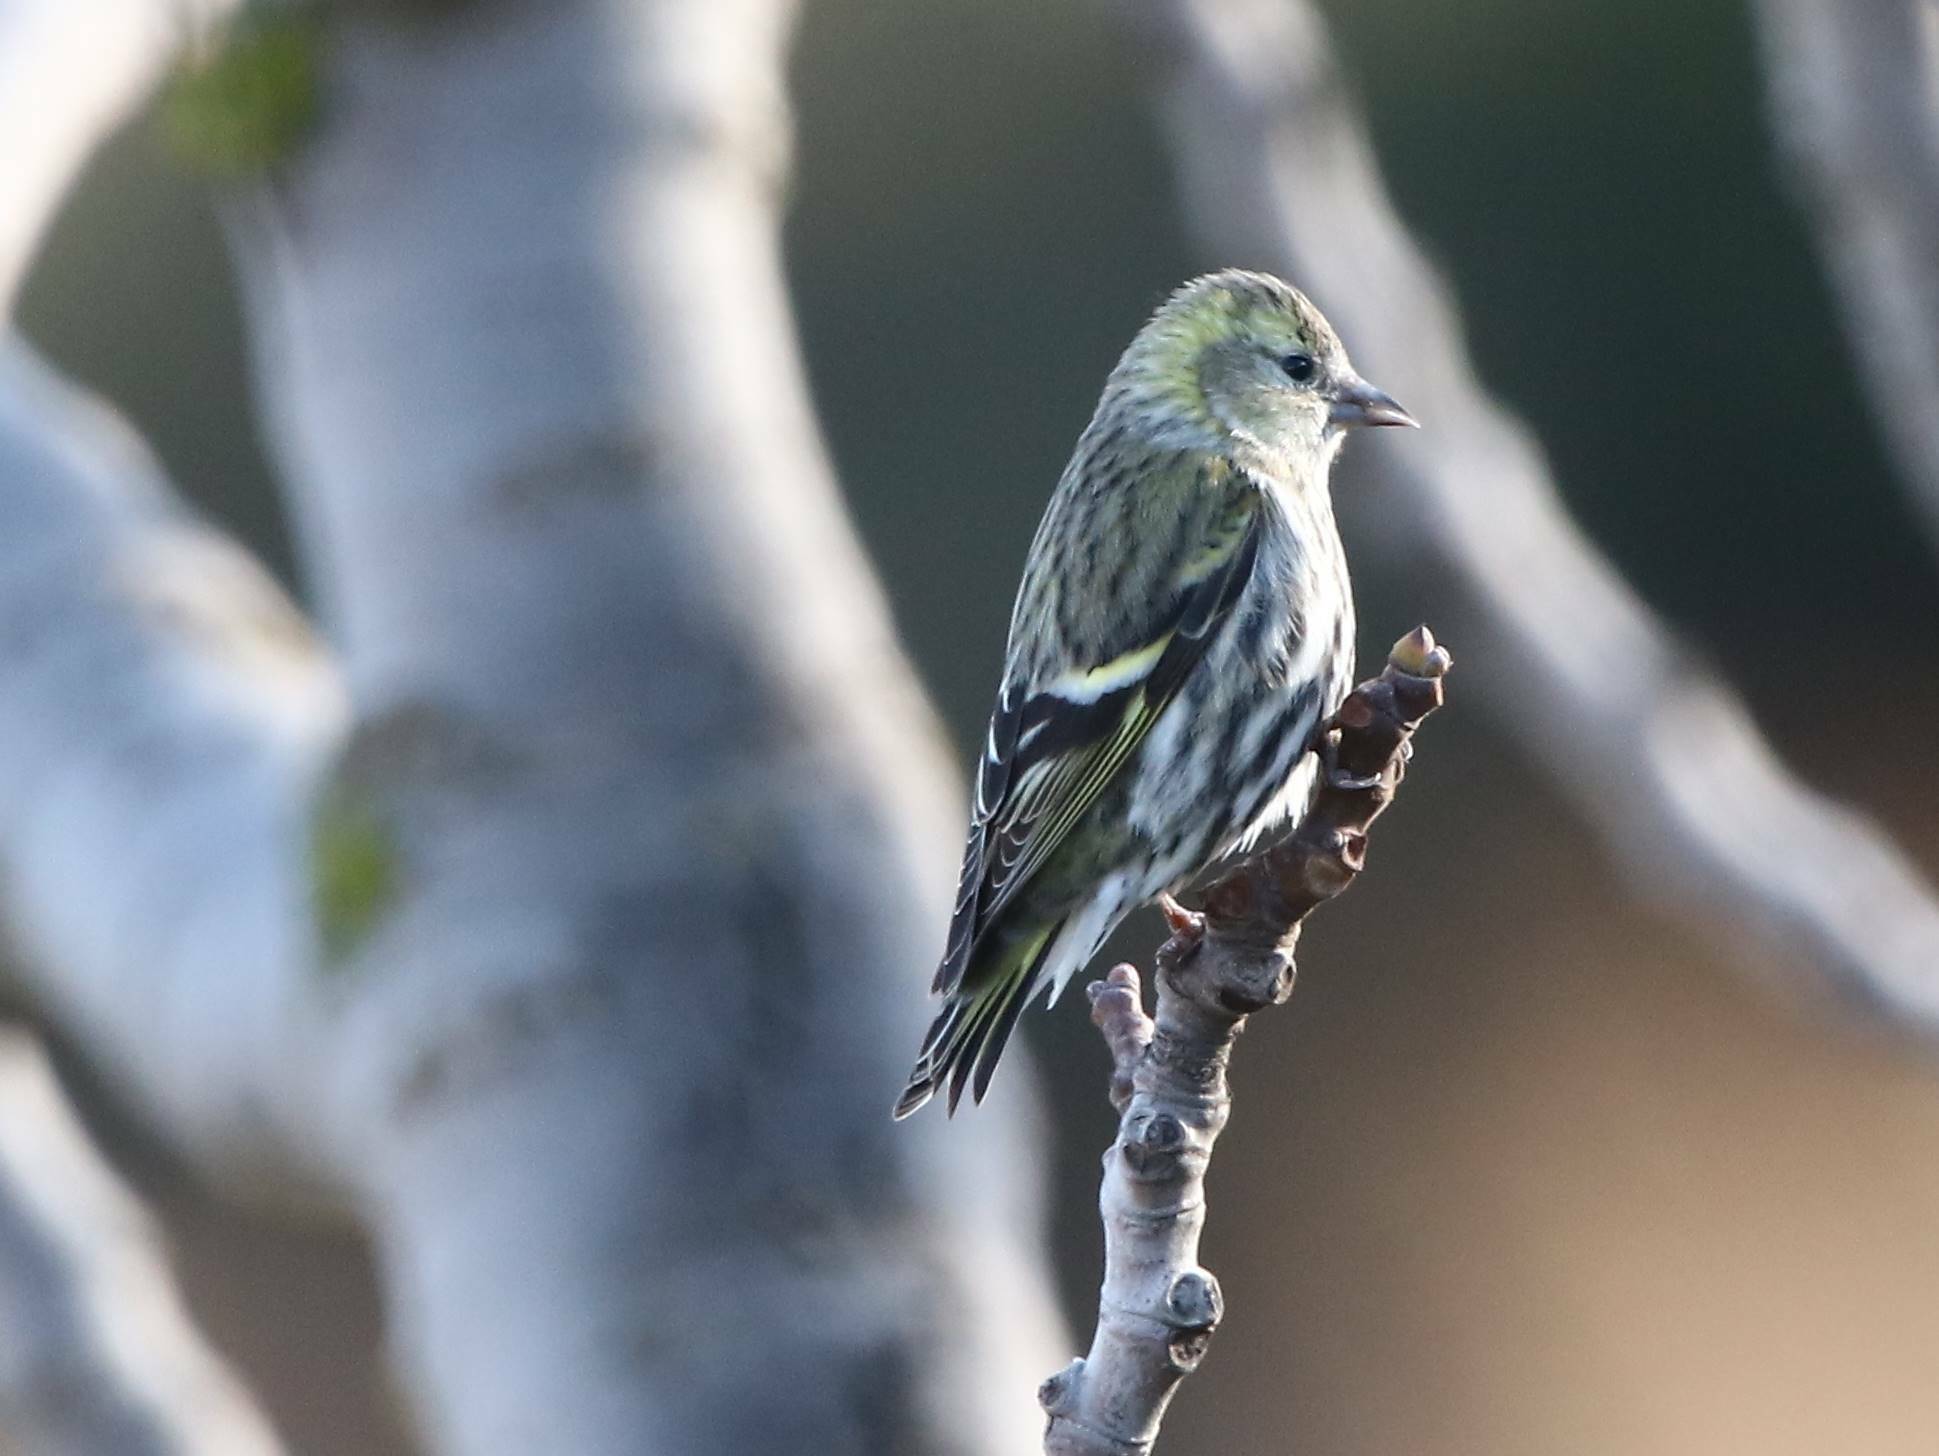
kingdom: Animalia
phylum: Chordata
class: Aves
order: Passeriformes
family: Fringillidae
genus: Spinus
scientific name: Spinus spinus
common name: Eurasian siskin
